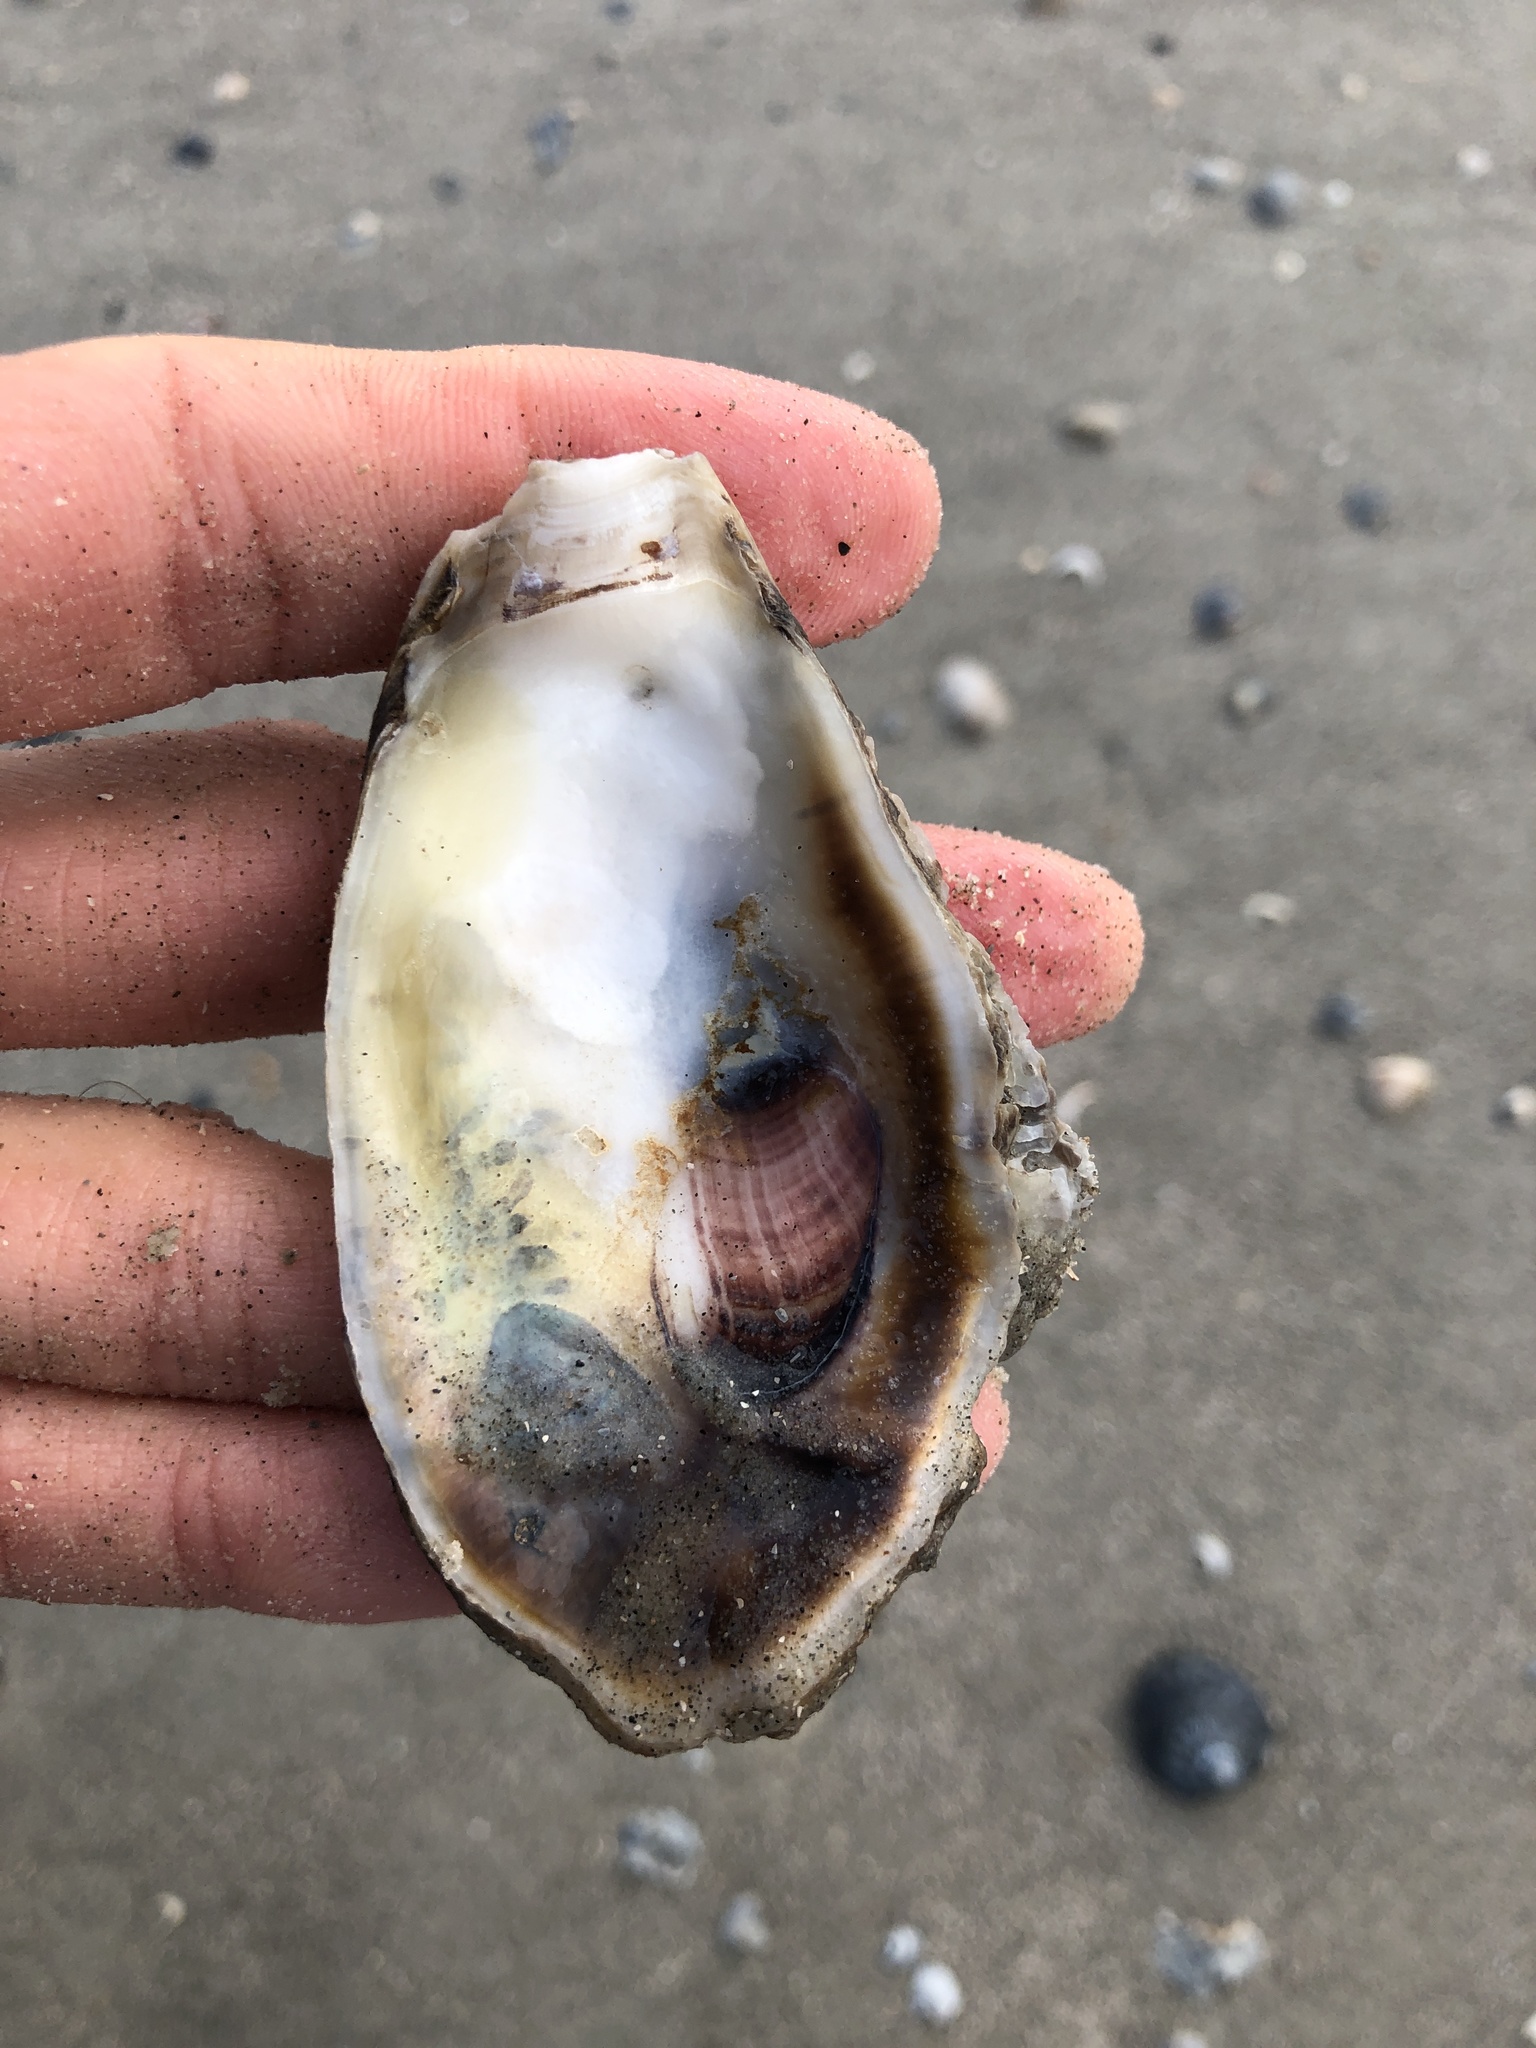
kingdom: Animalia
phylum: Mollusca
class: Bivalvia
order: Ostreida
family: Ostreidae
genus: Crassostrea
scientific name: Crassostrea virginica
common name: American oyster
